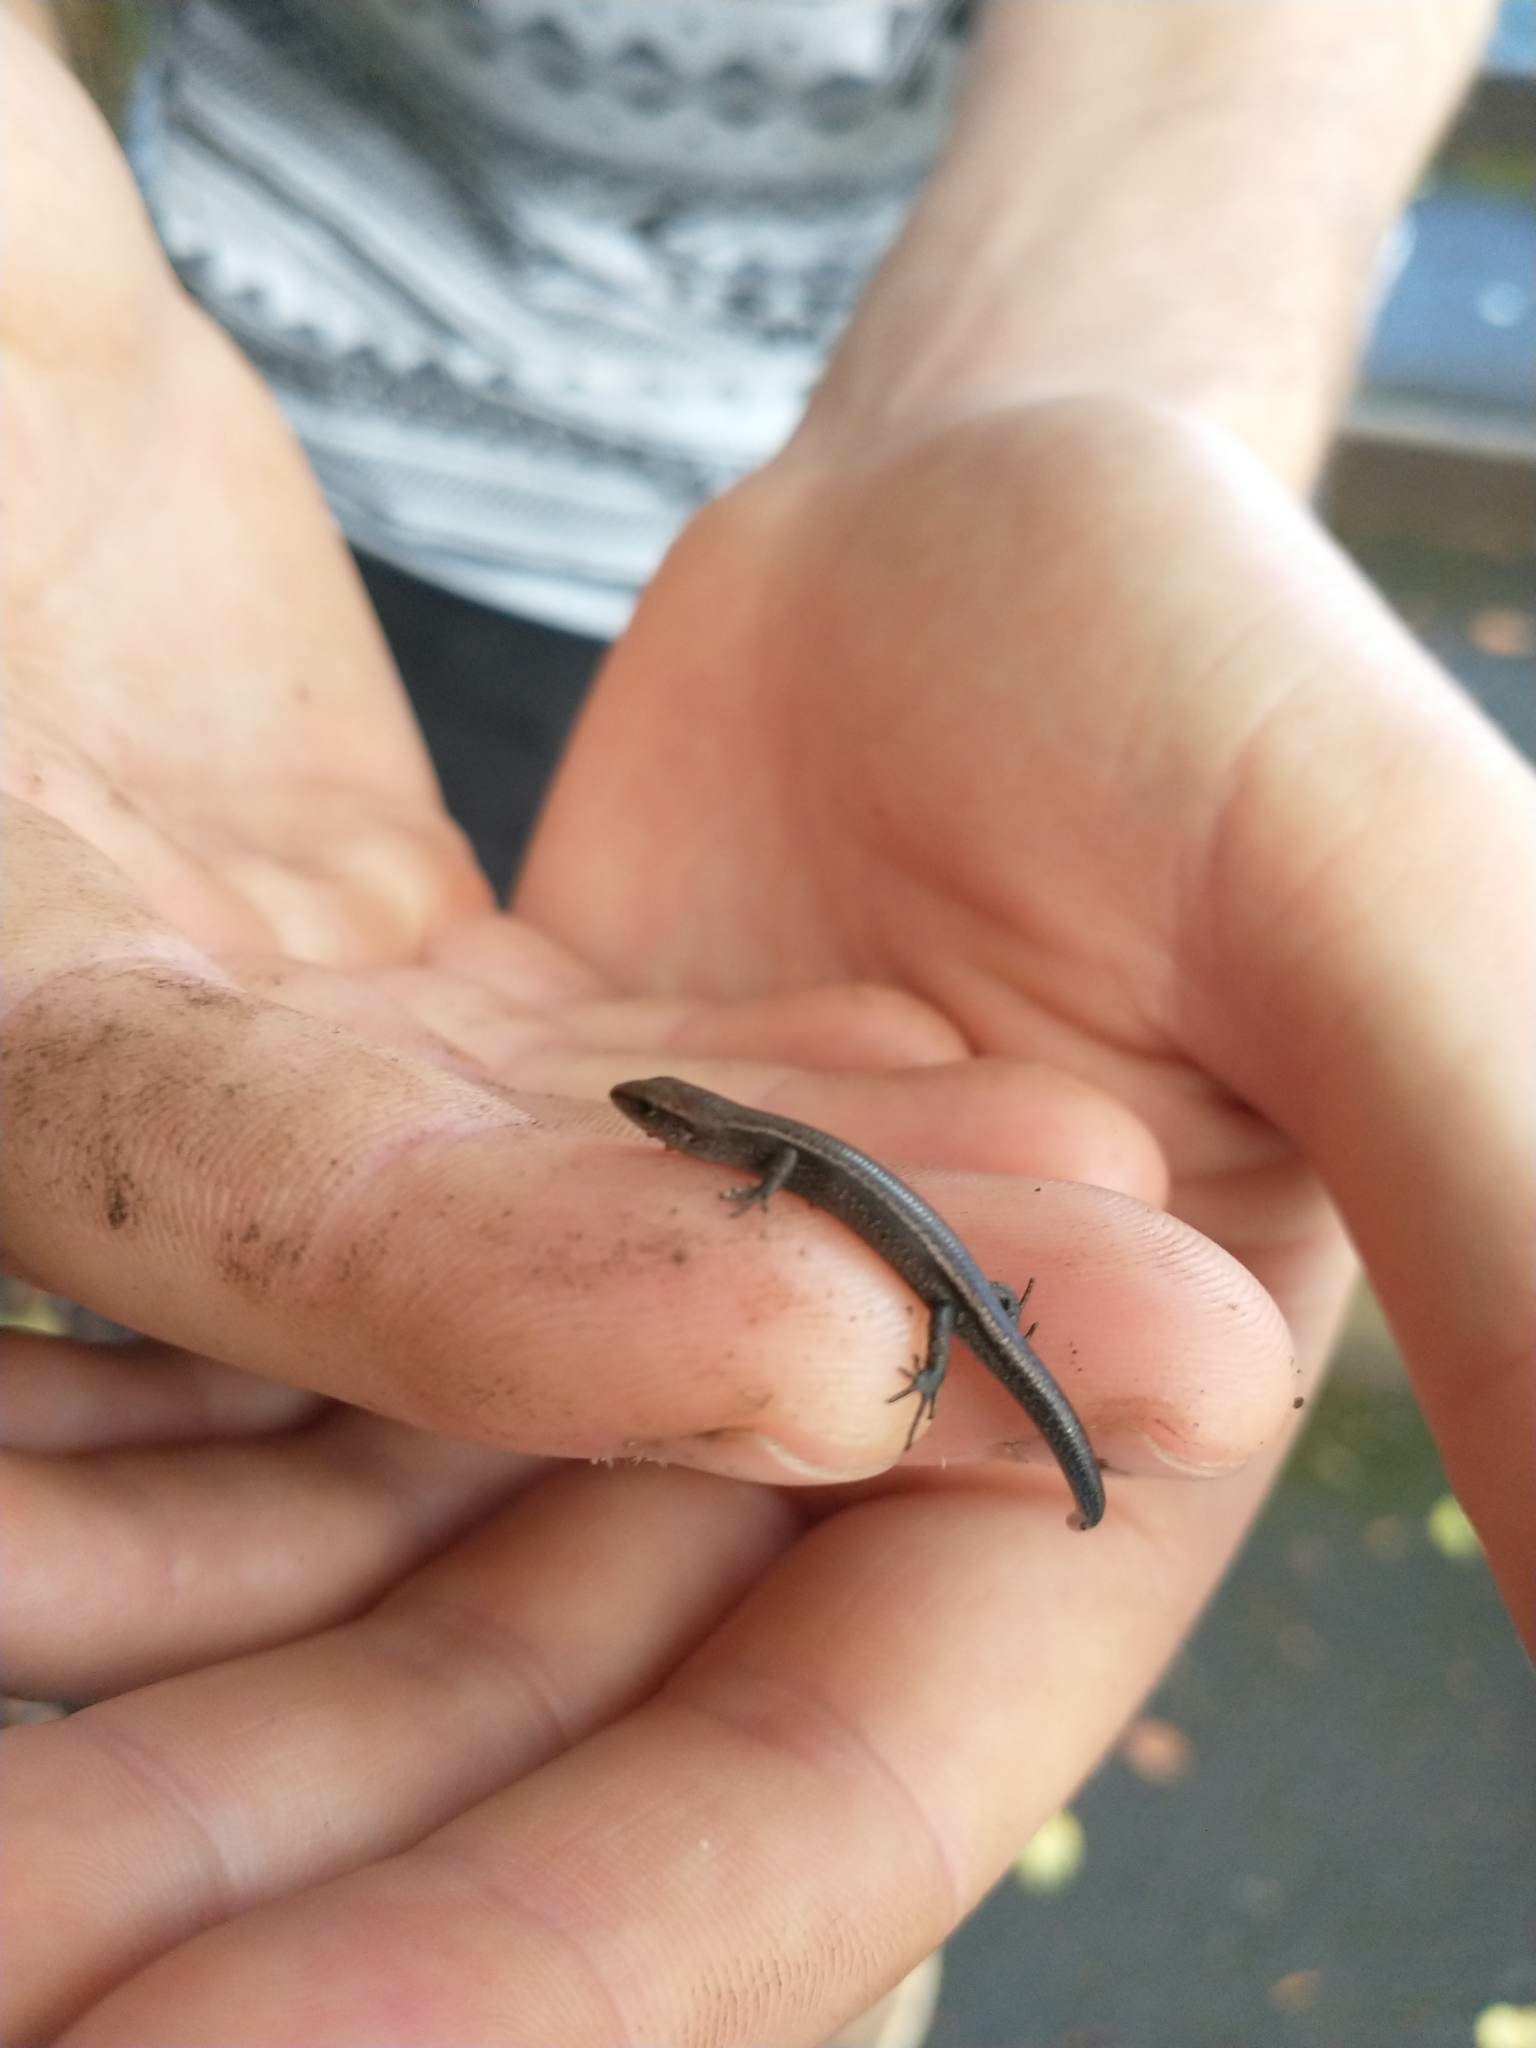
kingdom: Animalia
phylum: Chordata
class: Squamata
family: Scincidae
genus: Lampropholis
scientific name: Lampropholis delicata
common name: Plague skink
